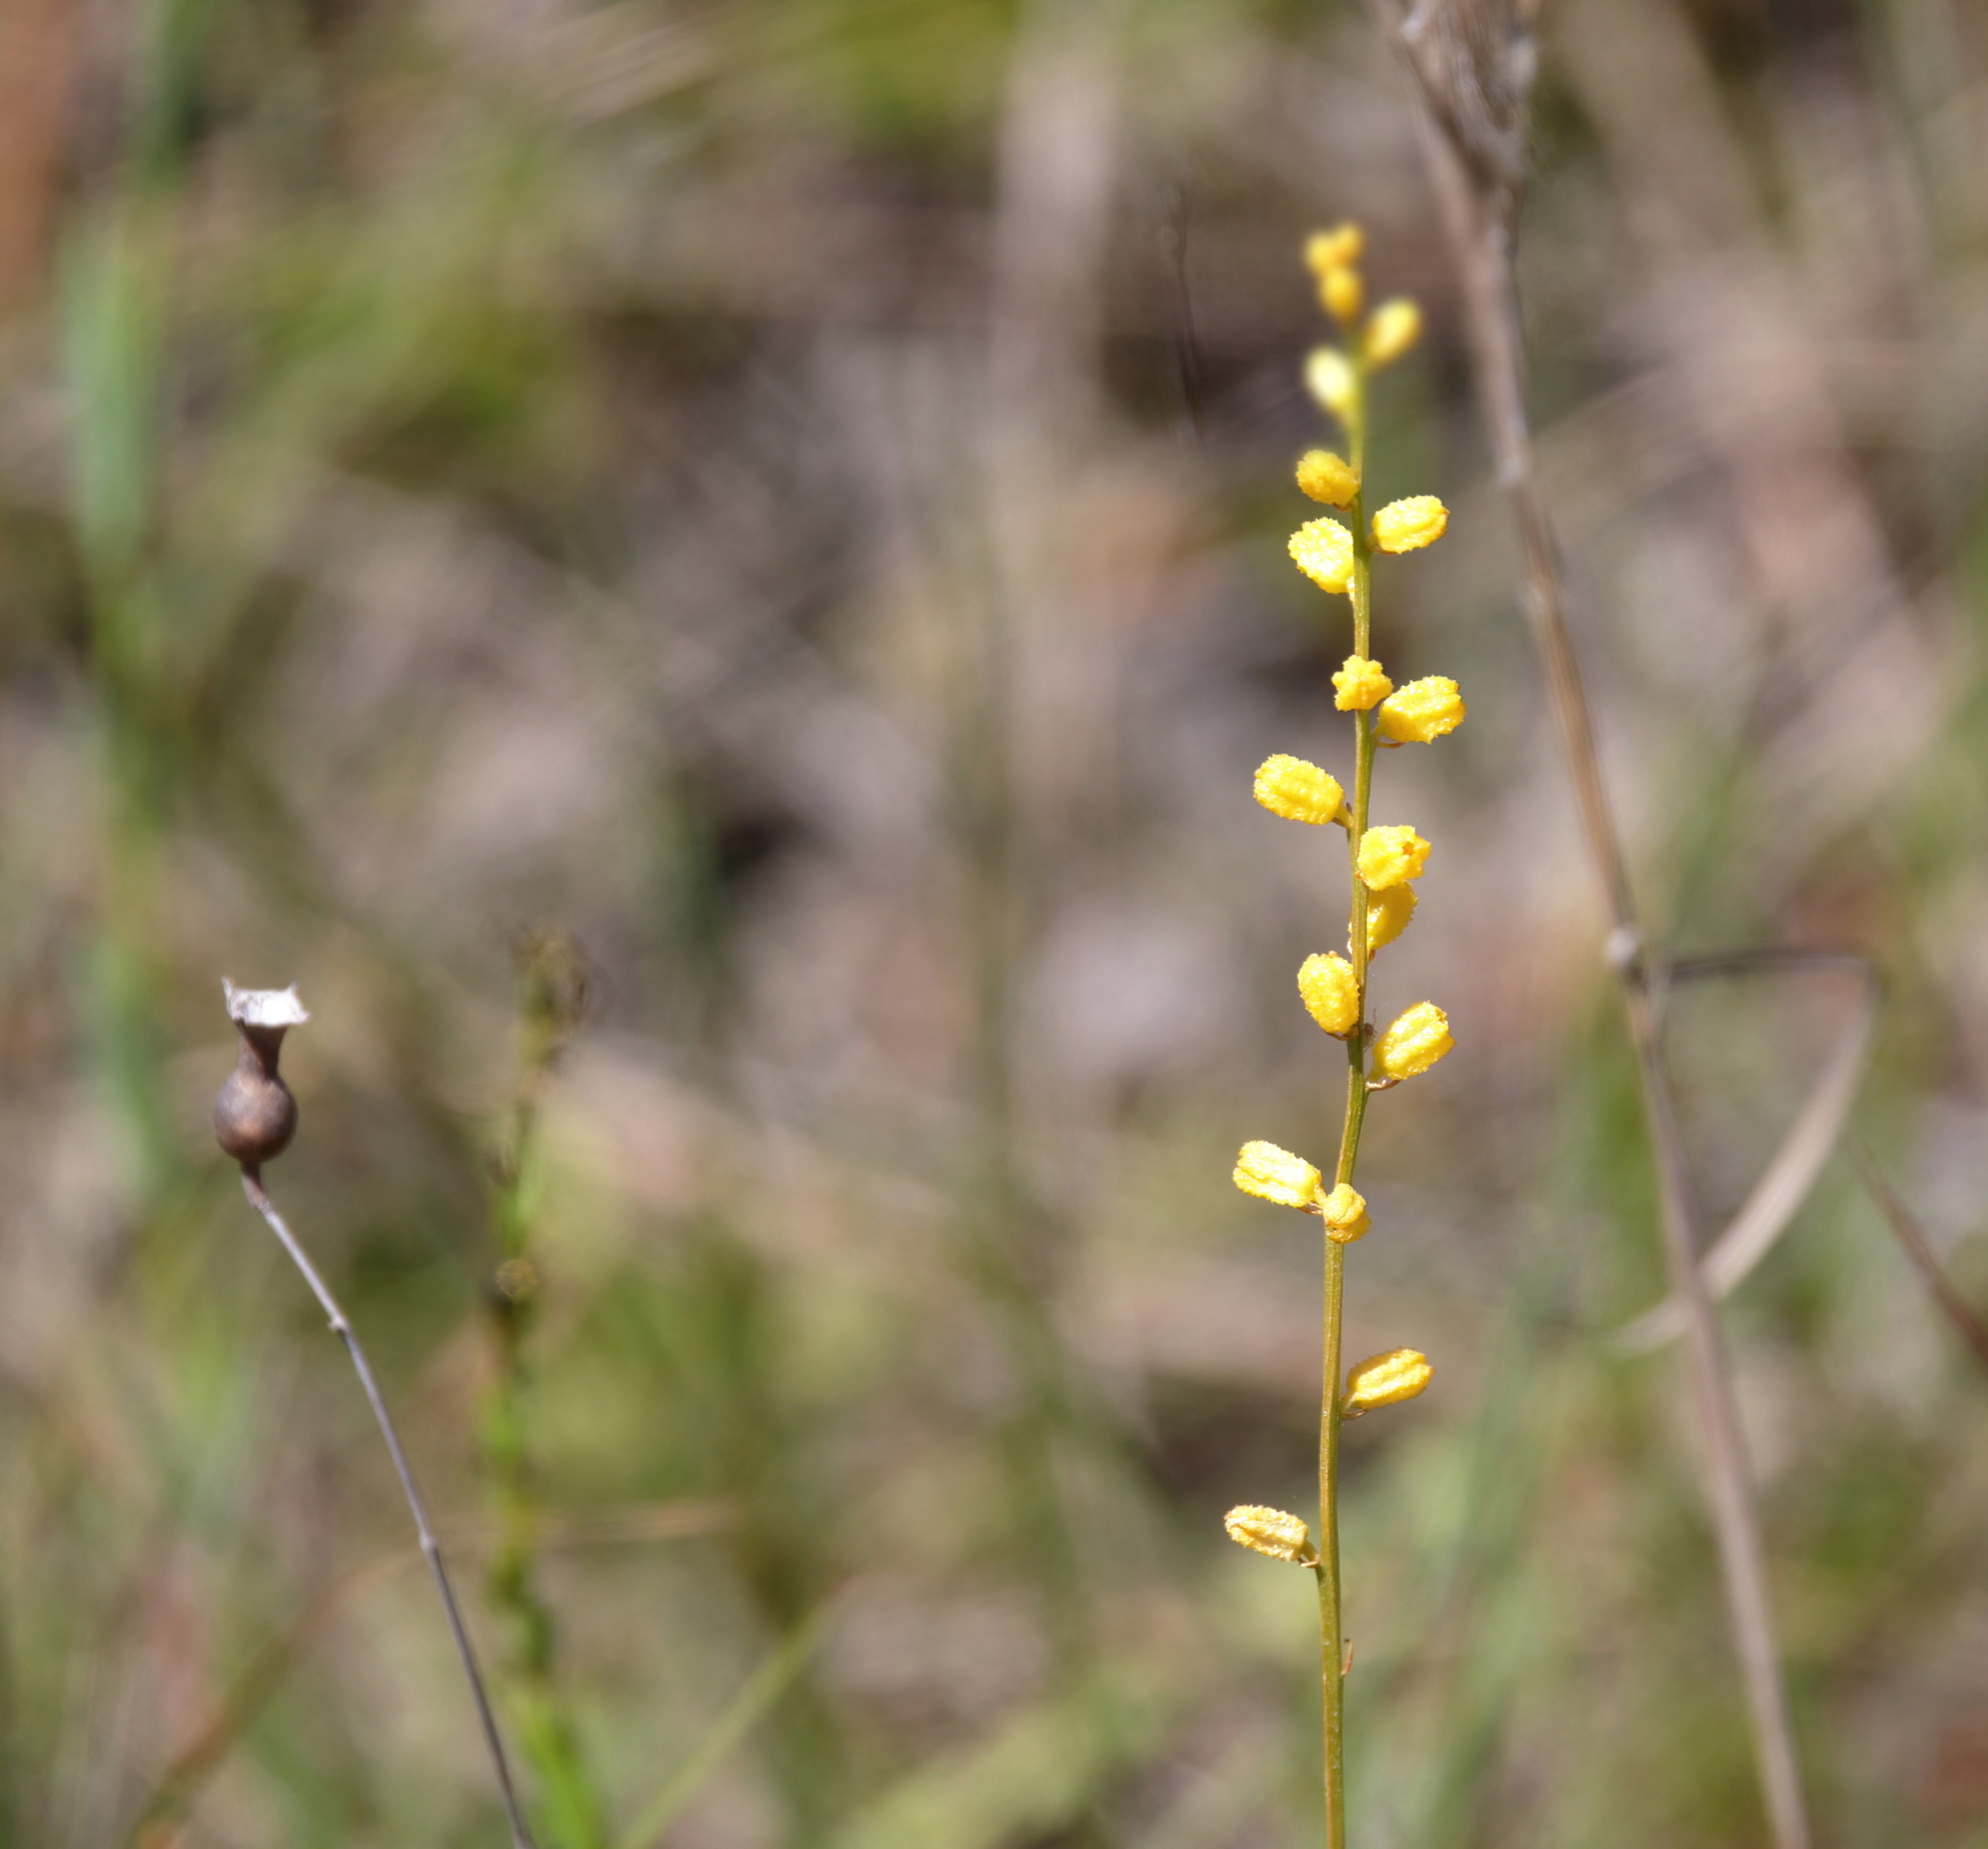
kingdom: Plantae
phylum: Tracheophyta
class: Liliopsida
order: Dioscoreales
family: Nartheciaceae
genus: Aletris
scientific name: Aletris aurea
